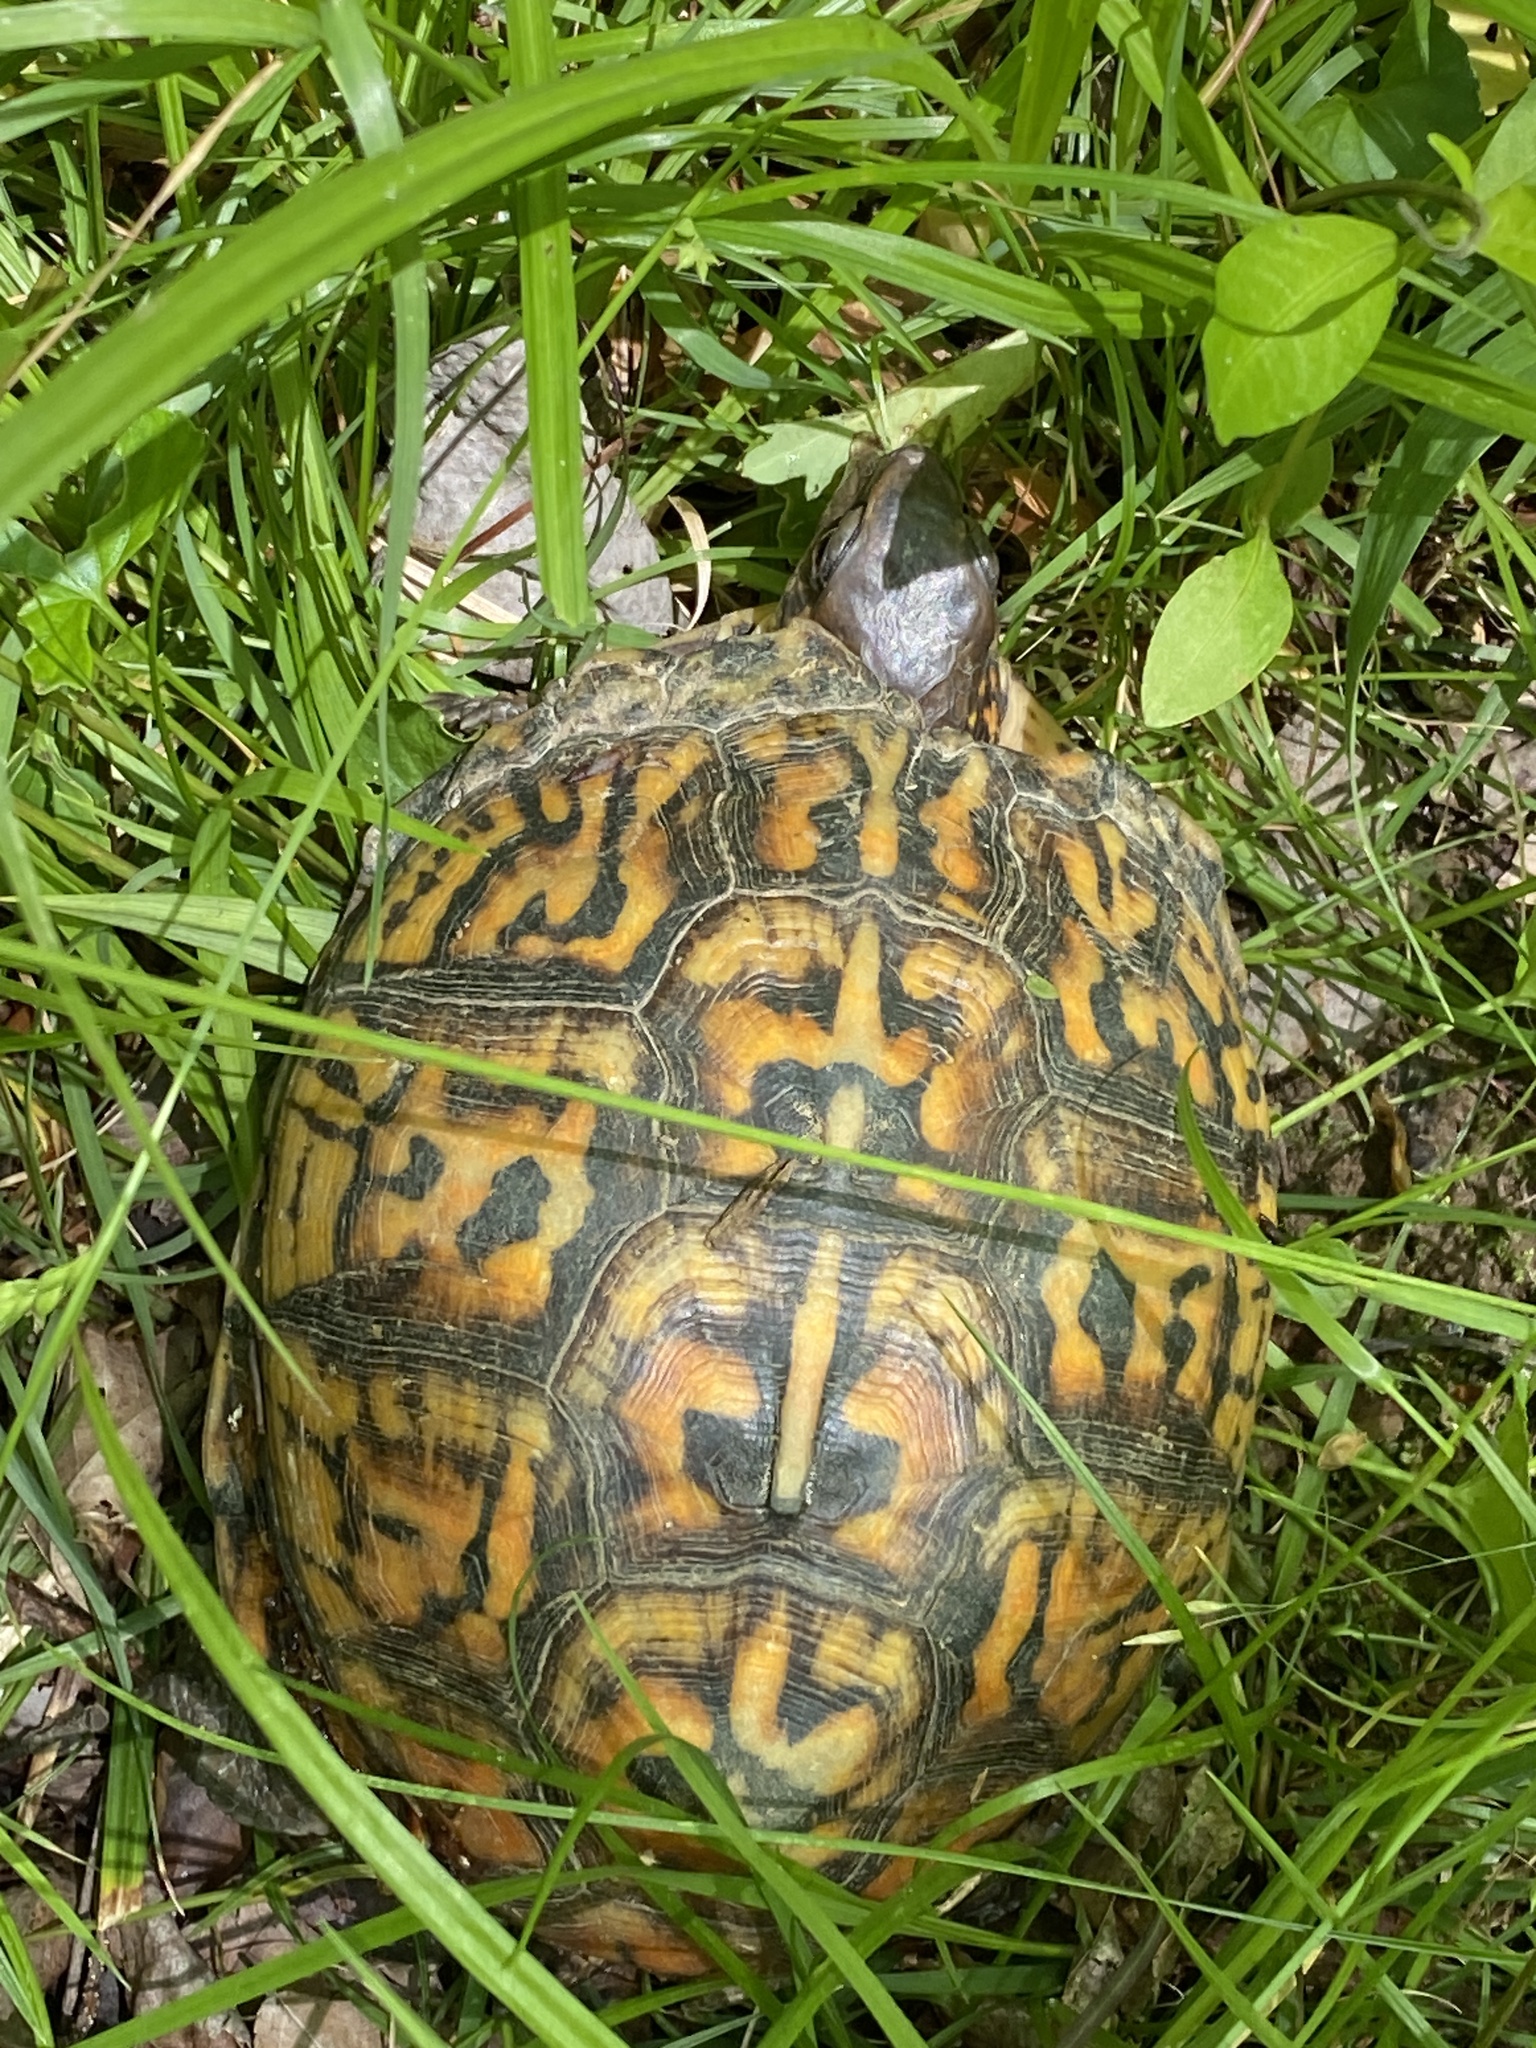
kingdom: Animalia
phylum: Chordata
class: Testudines
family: Emydidae
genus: Terrapene
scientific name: Terrapene carolina
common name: Common box turtle
